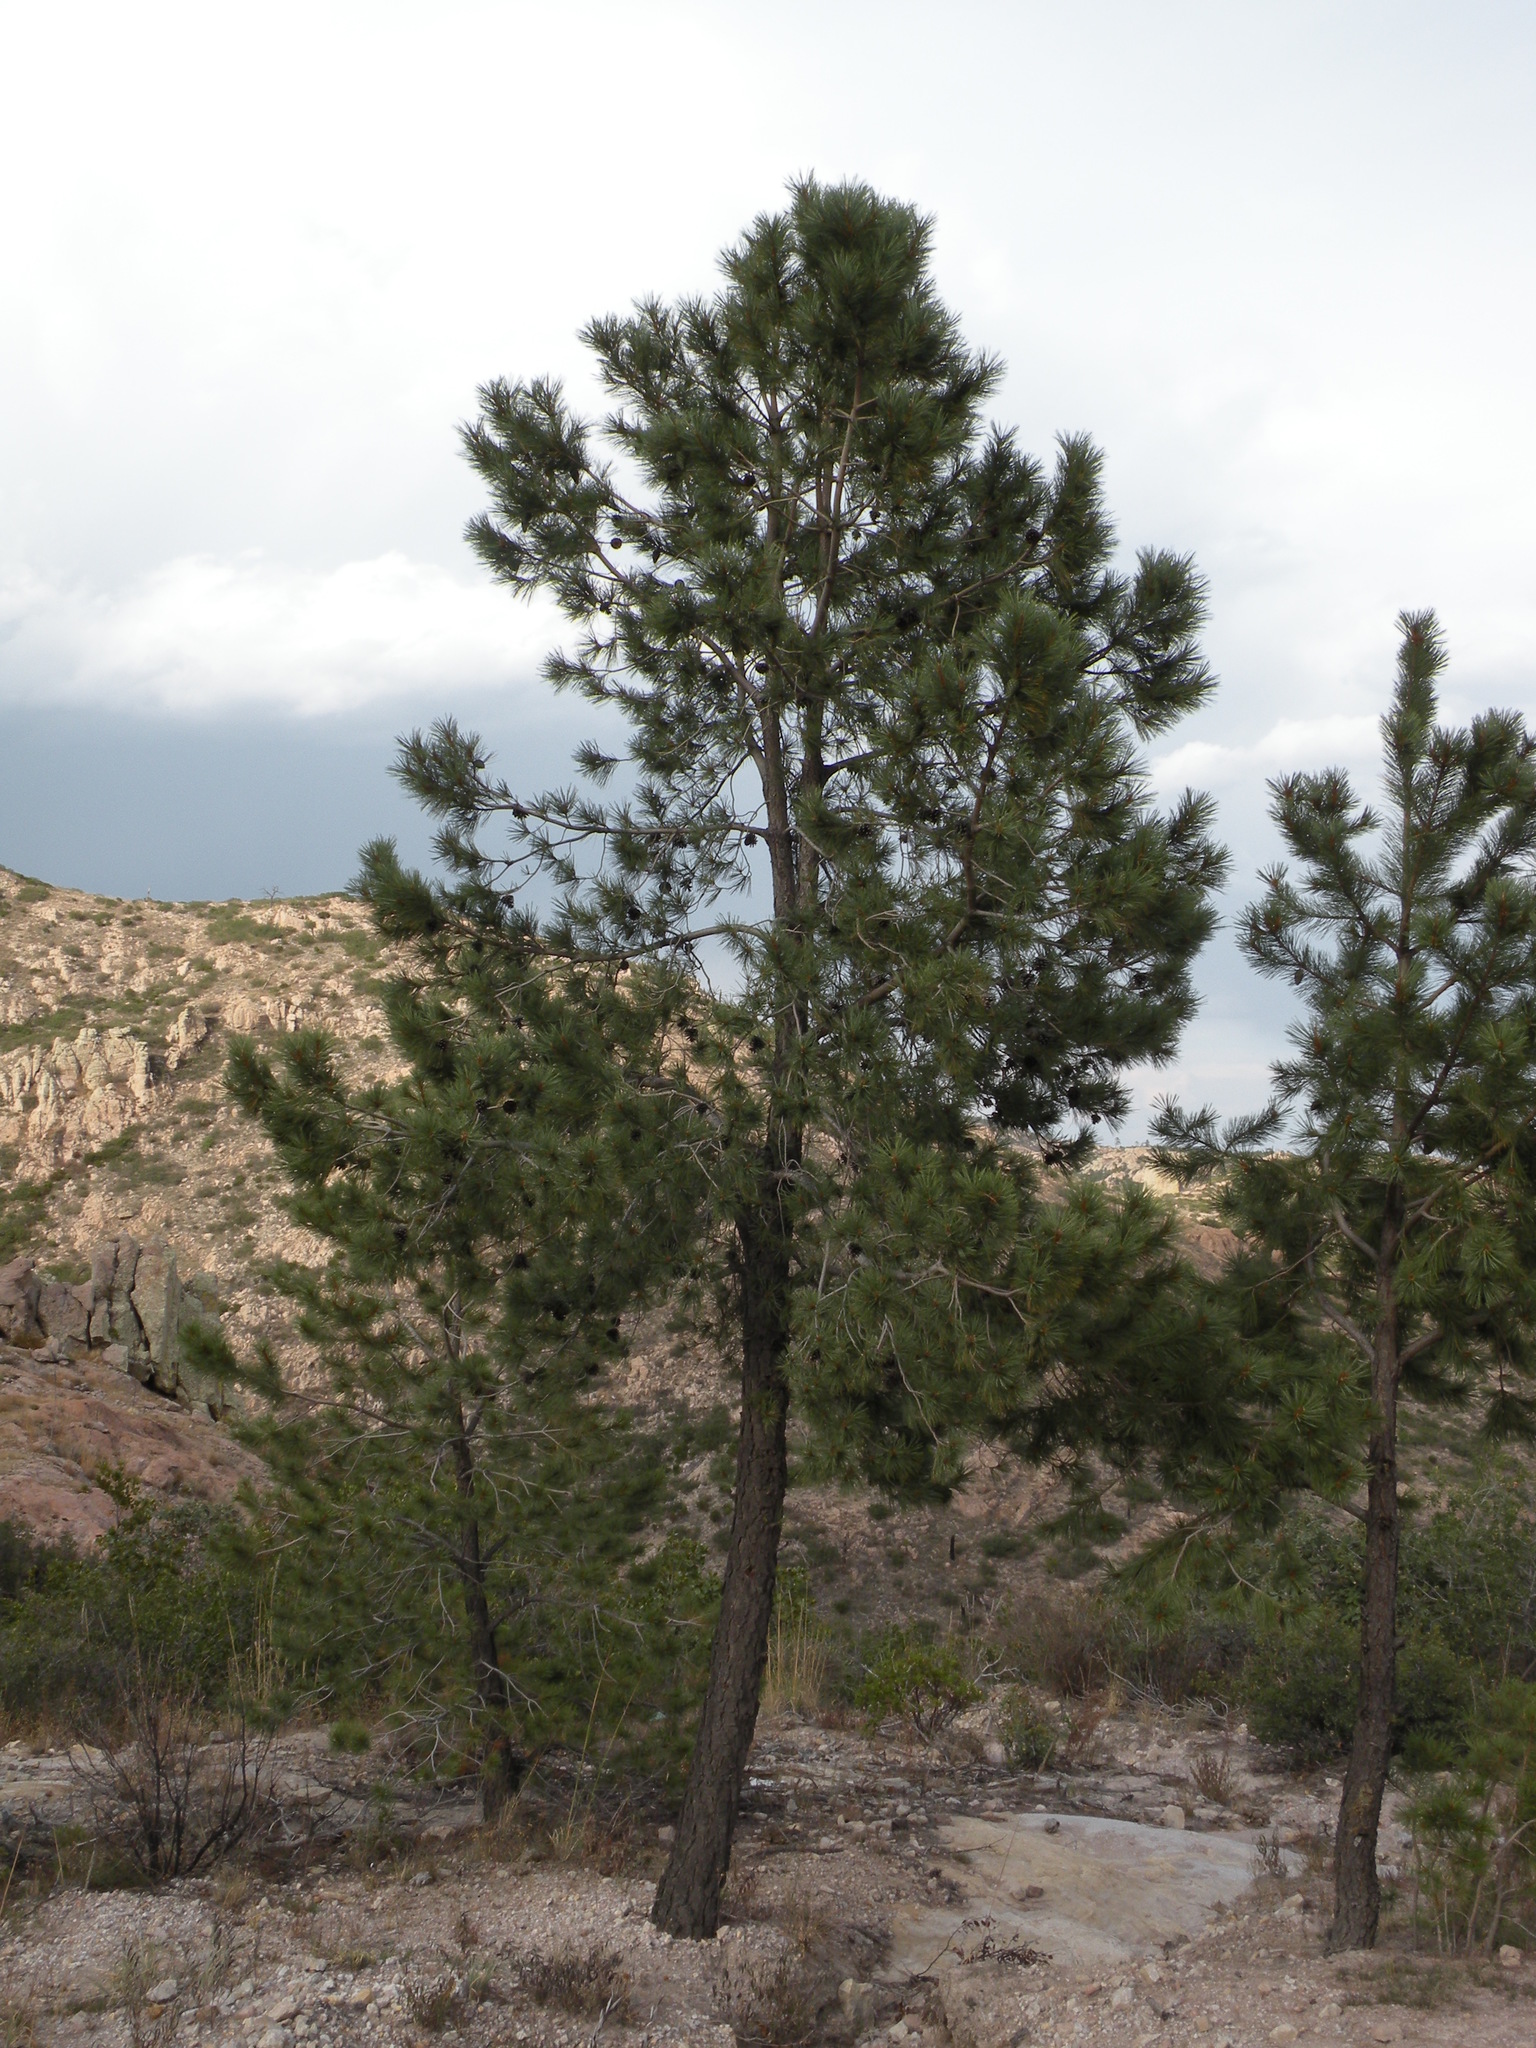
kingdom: Plantae
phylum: Tracheophyta
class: Pinopsida
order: Pinales
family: Pinaceae
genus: Pinus
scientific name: Pinus leiophylla
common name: Chihuahua pine
